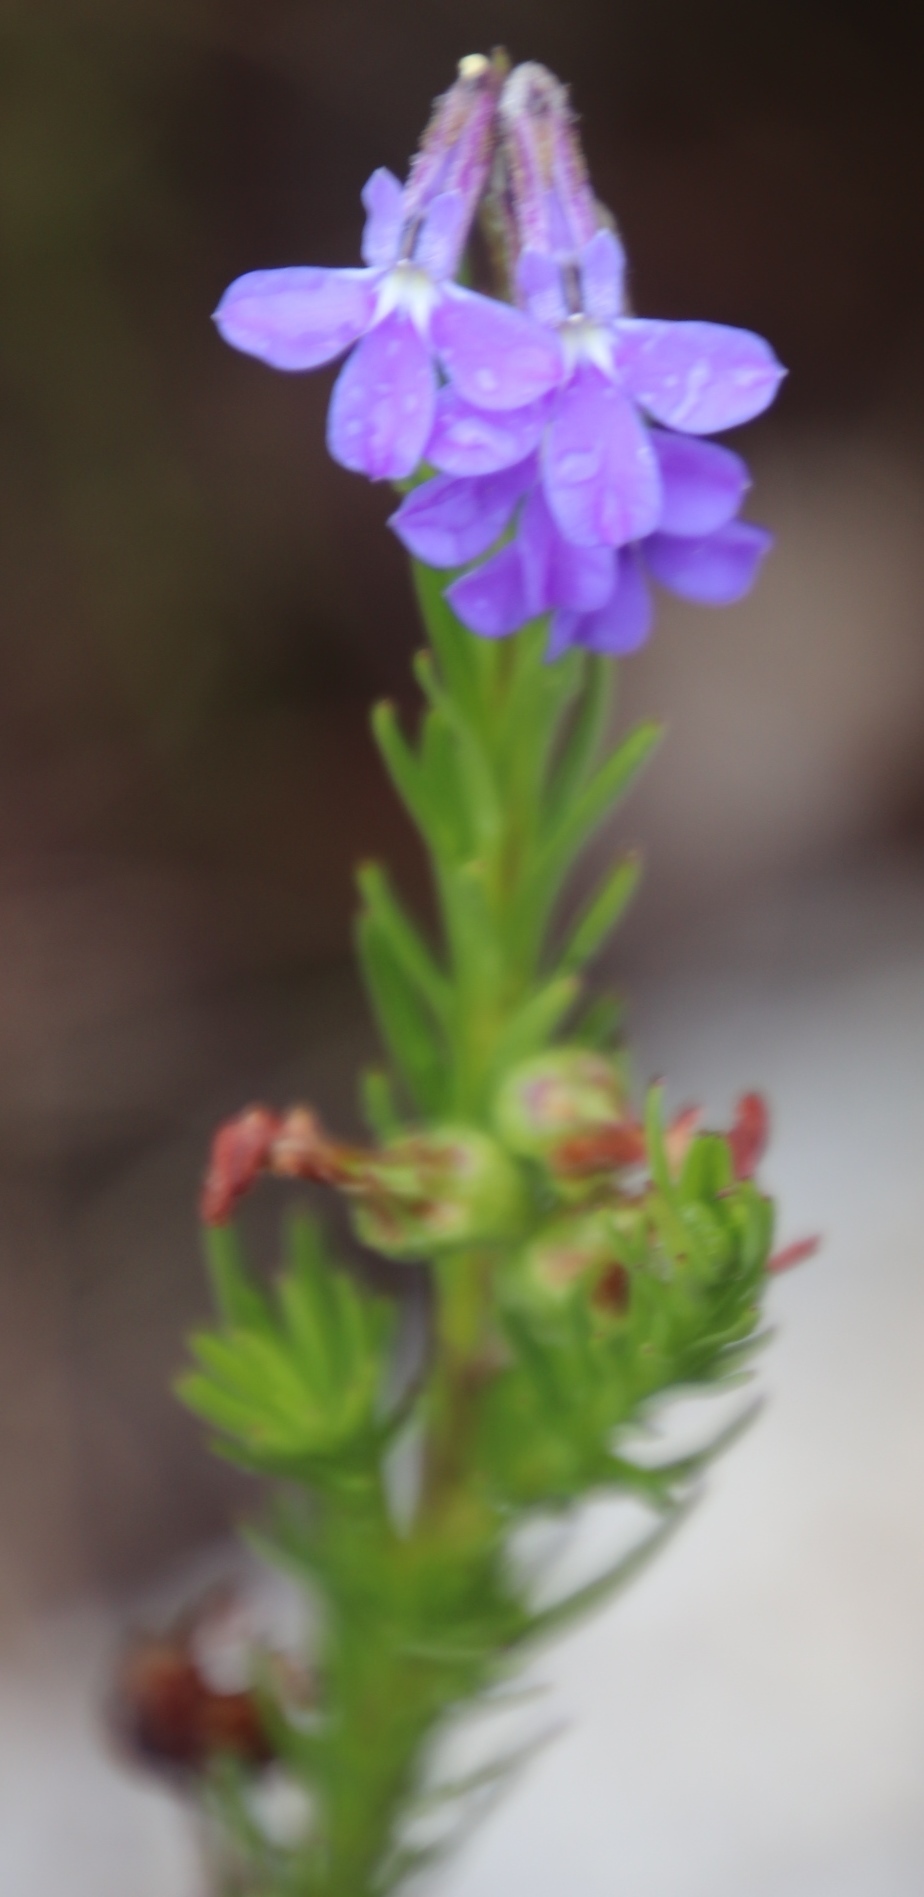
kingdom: Plantae
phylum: Tracheophyta
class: Magnoliopsida
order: Asterales
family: Campanulaceae
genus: Lobelia
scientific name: Lobelia pinifolia
